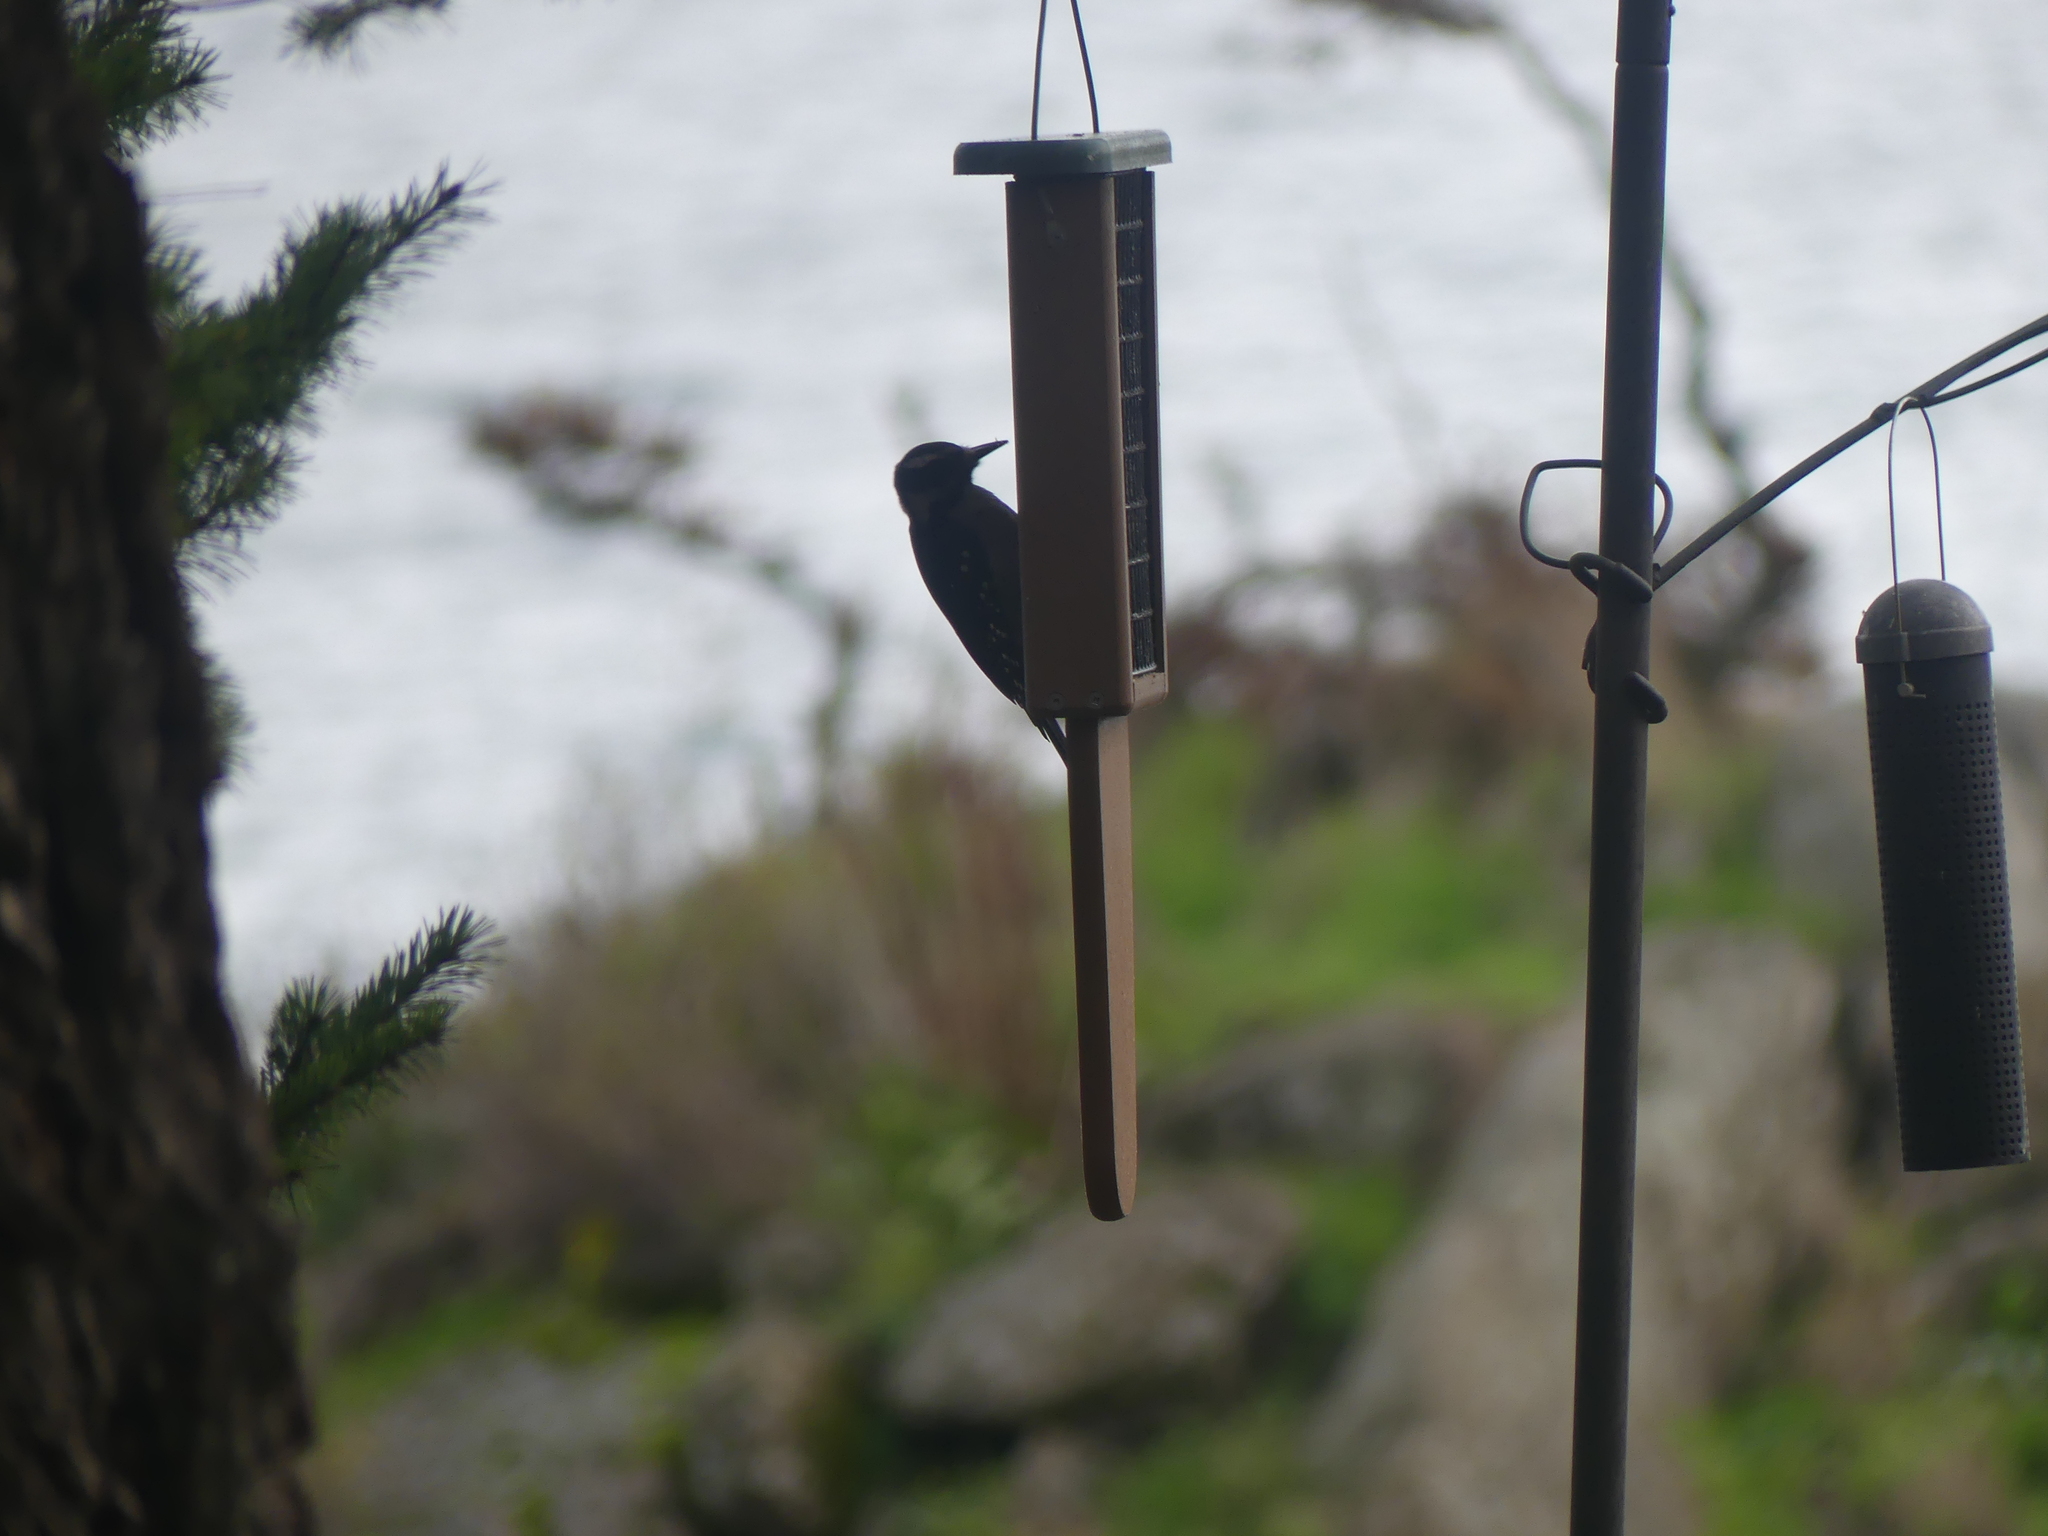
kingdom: Animalia
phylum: Chordata
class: Aves
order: Piciformes
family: Picidae
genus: Leuconotopicus
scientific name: Leuconotopicus villosus
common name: Hairy woodpecker
